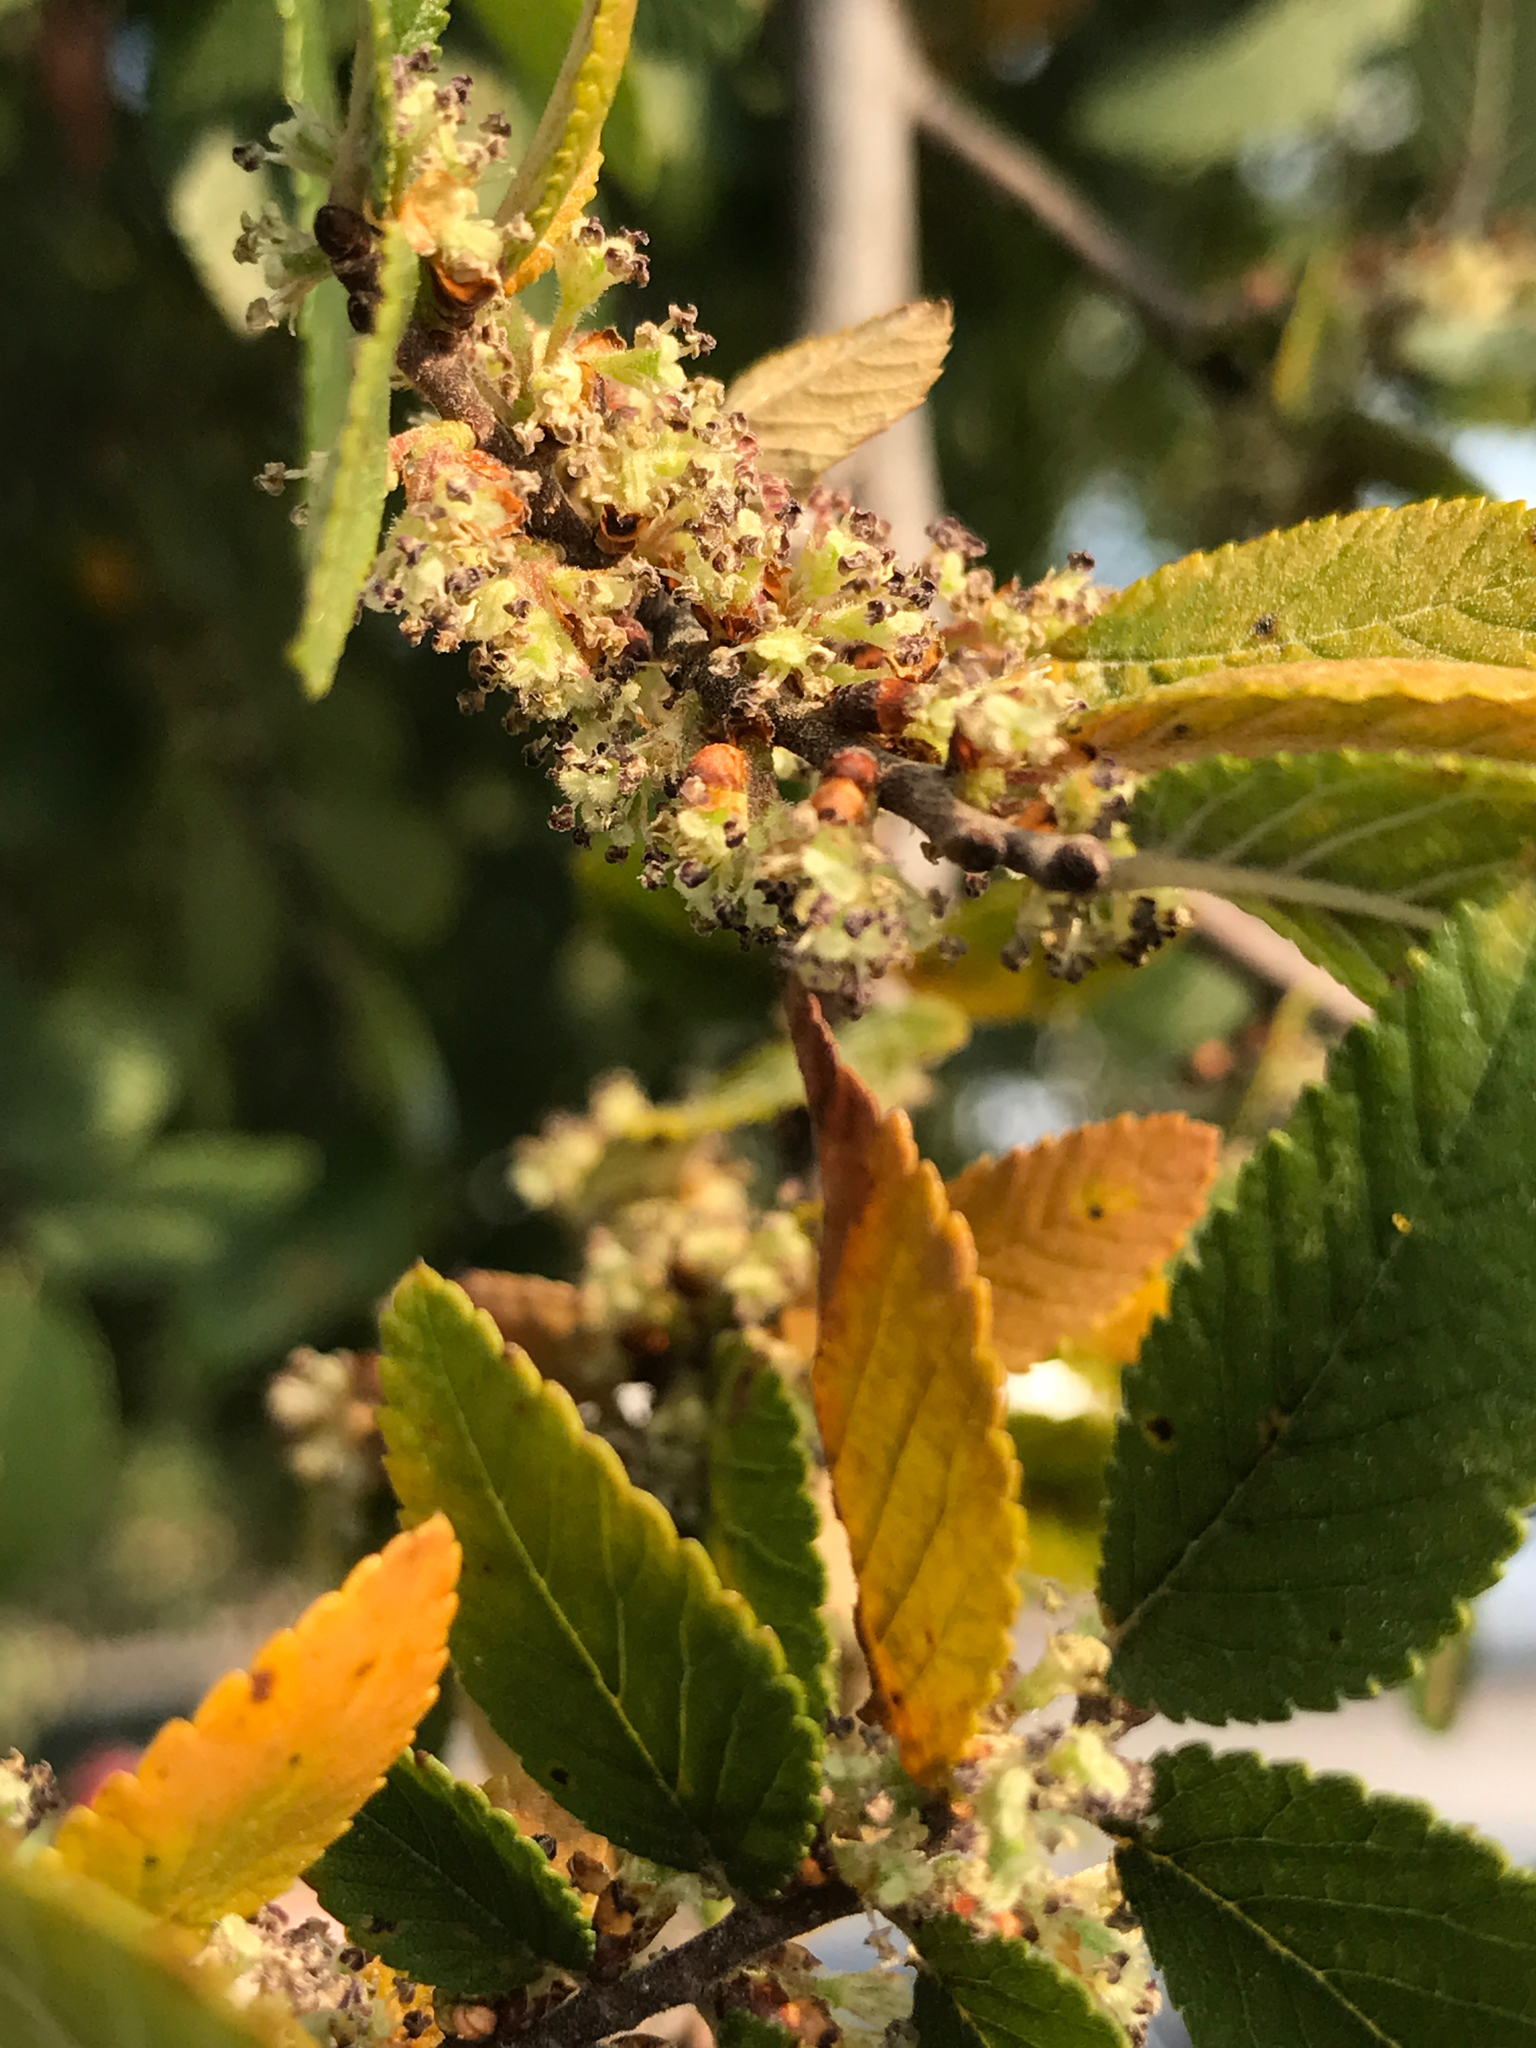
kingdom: Plantae
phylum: Tracheophyta
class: Magnoliopsida
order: Rosales
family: Ulmaceae
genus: Ulmus
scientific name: Ulmus crassifolia
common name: Basket elm
